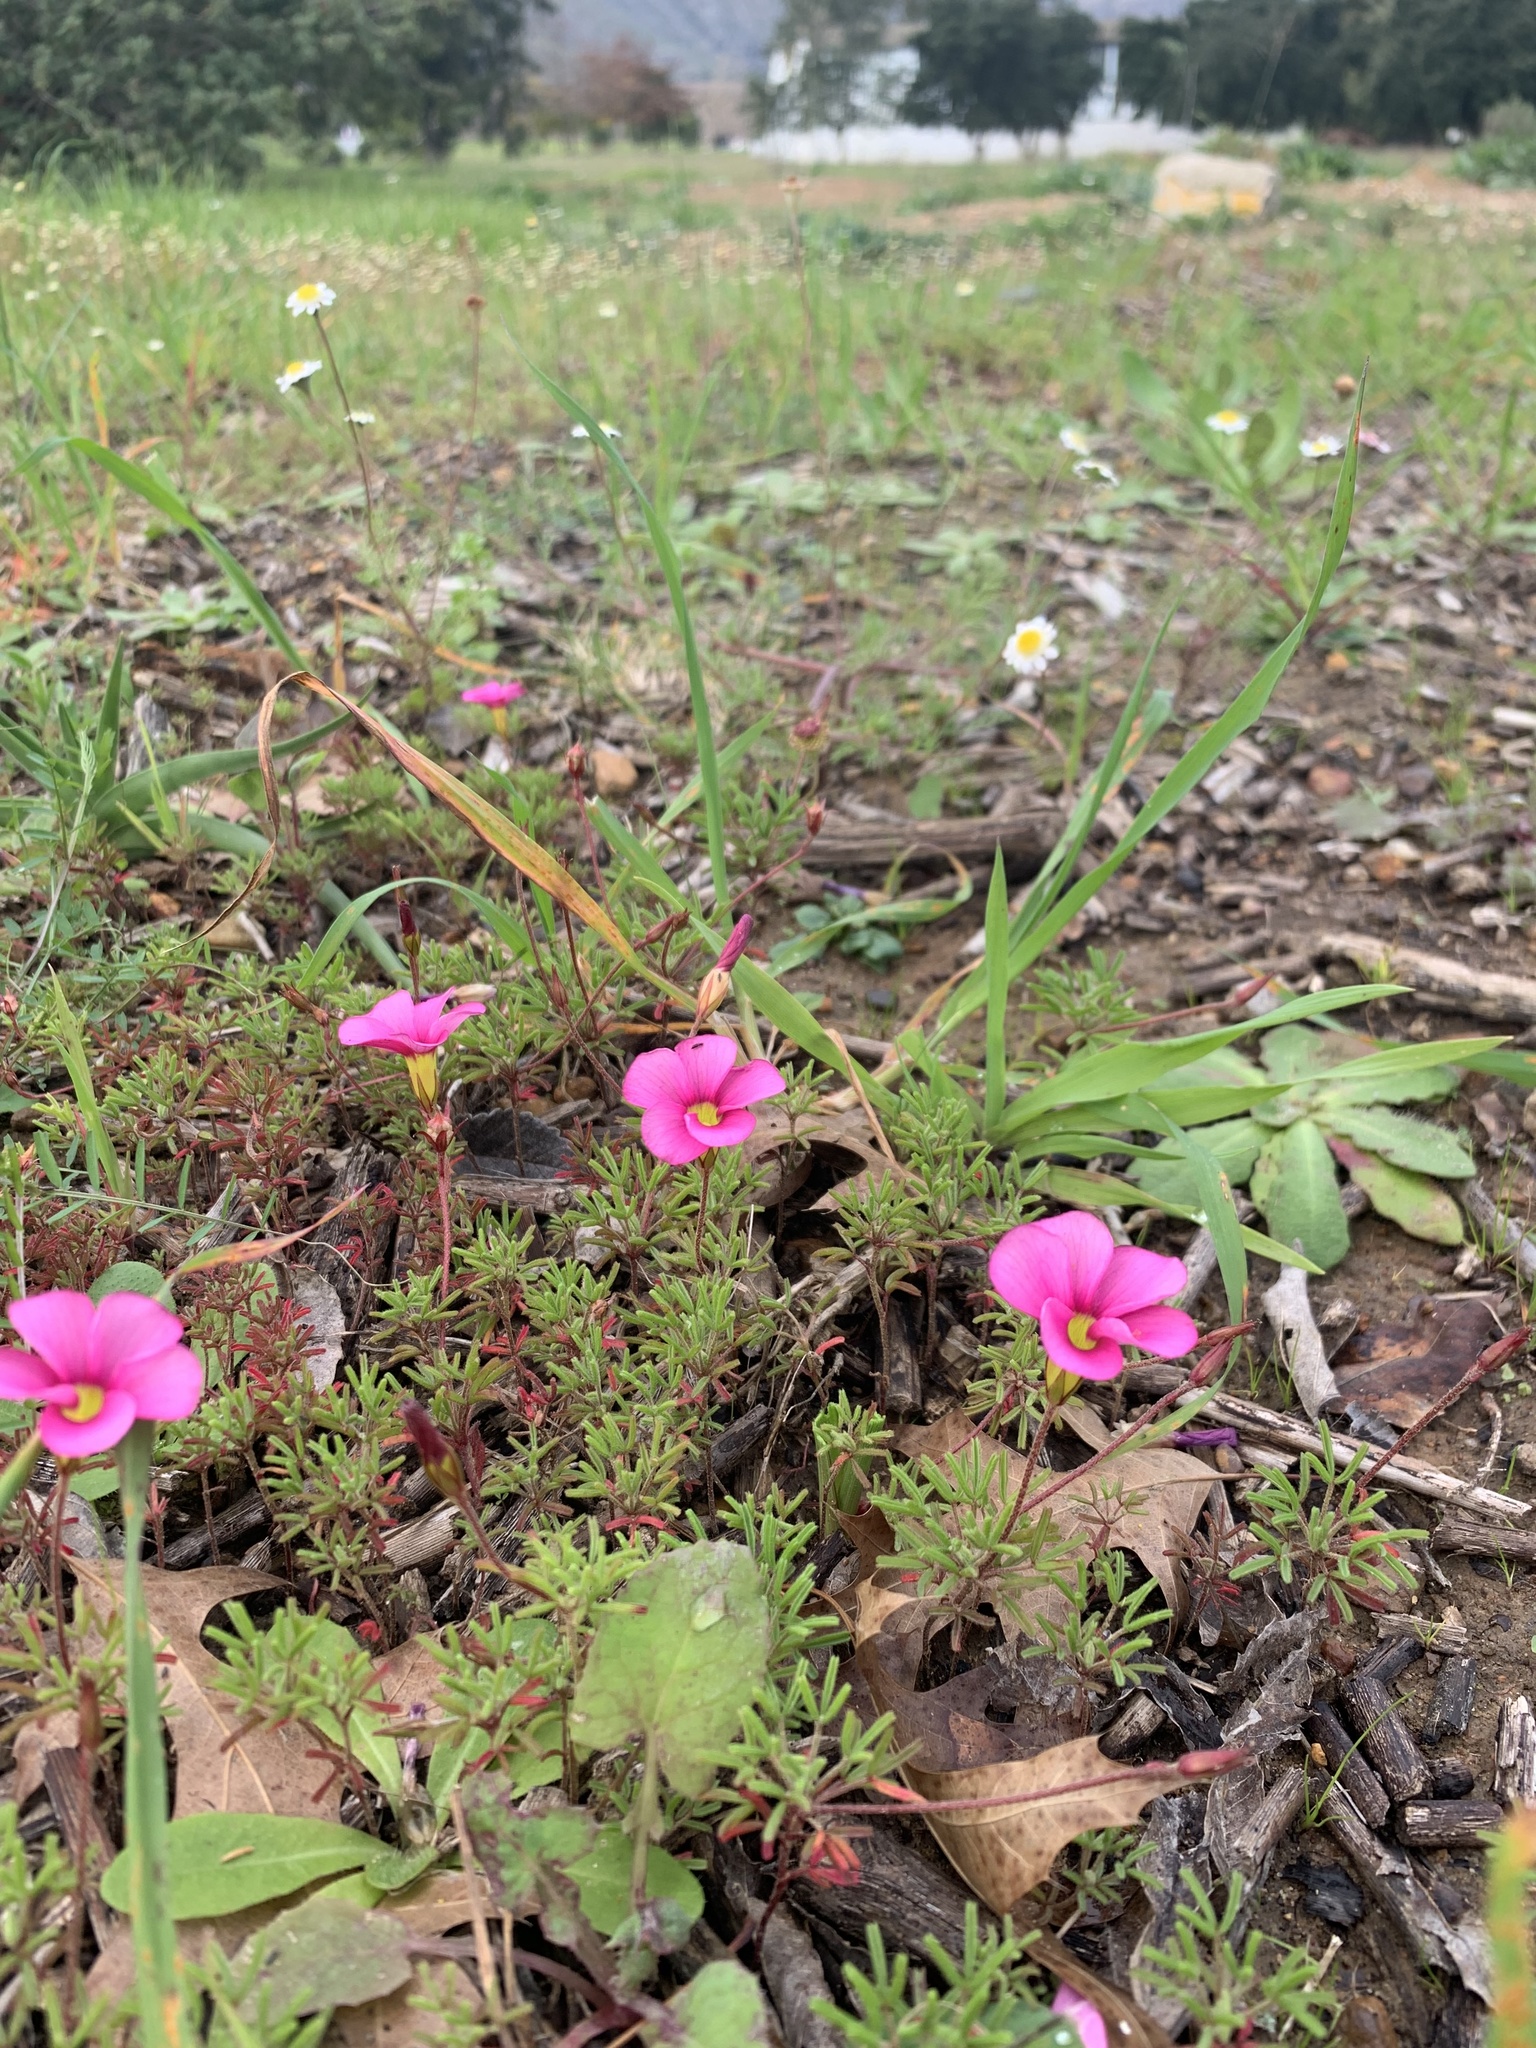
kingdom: Plantae
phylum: Tracheophyta
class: Magnoliopsida
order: Oxalidales
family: Oxalidaceae
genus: Oxalis
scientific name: Oxalis glabra
